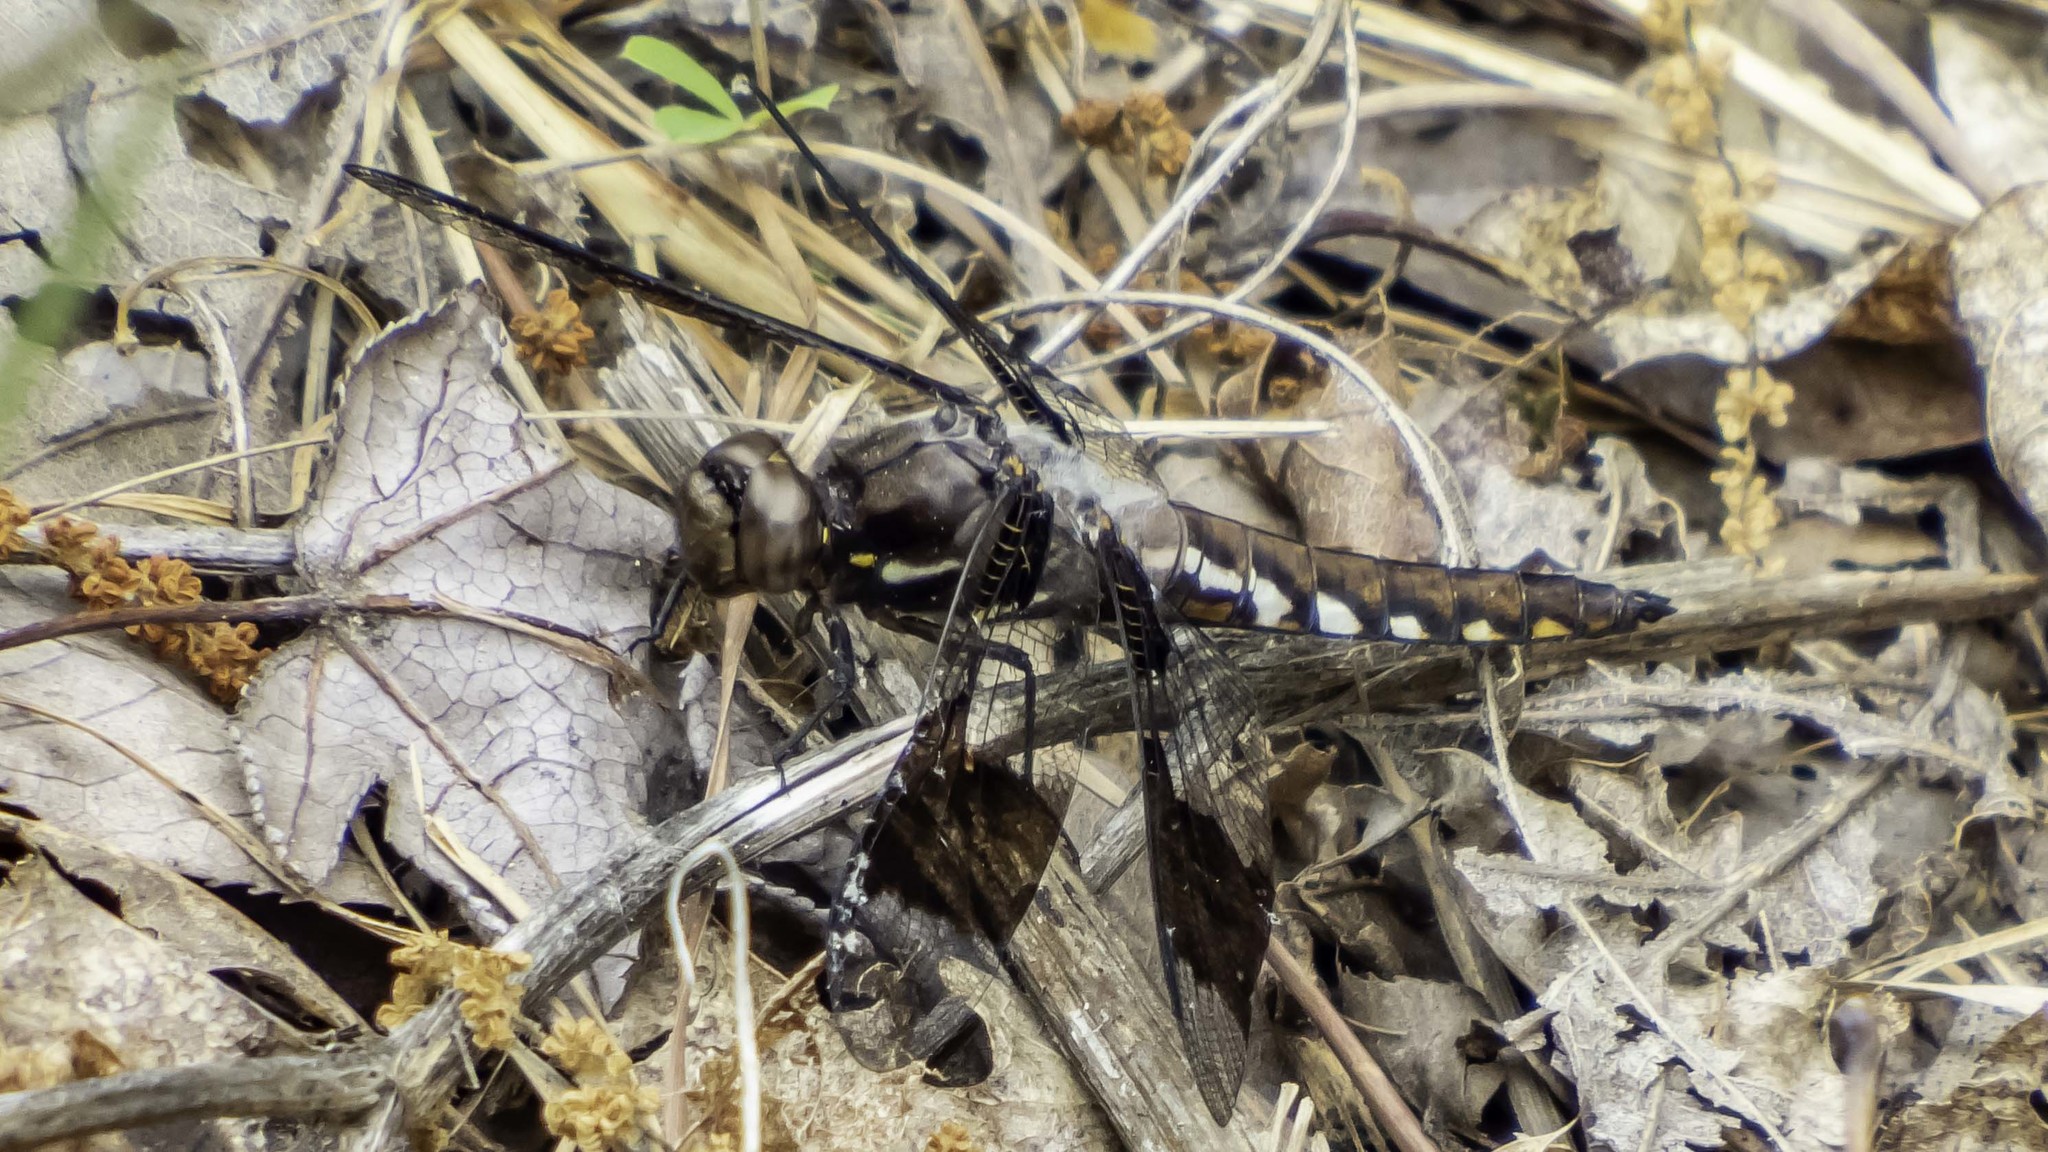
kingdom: Animalia
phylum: Arthropoda
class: Insecta
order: Odonata
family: Libellulidae
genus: Plathemis
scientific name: Plathemis lydia
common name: Common whitetail
